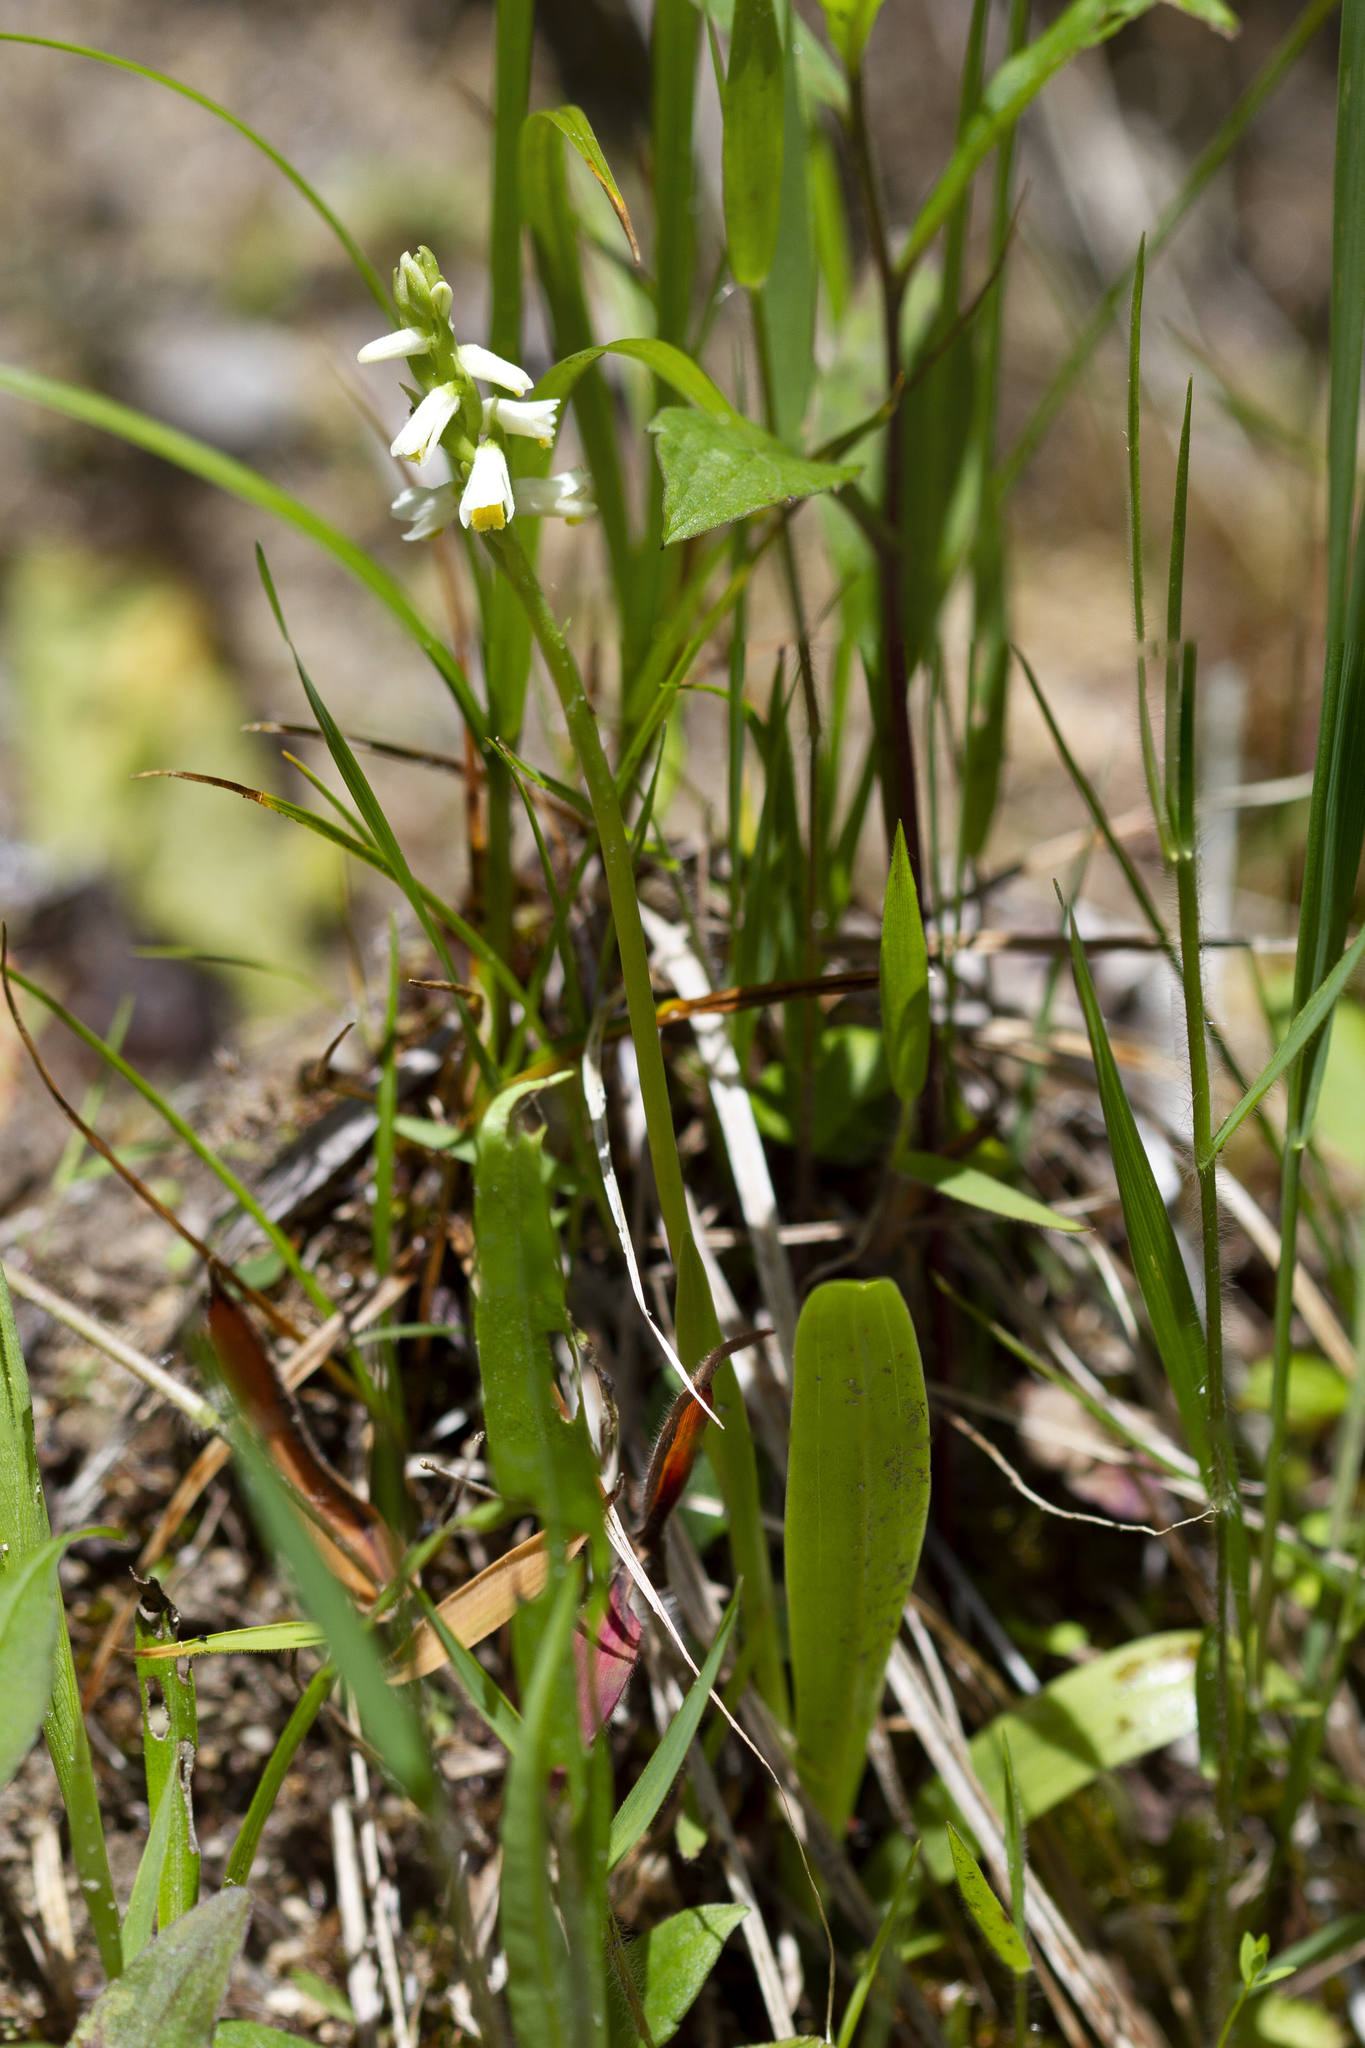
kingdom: Plantae
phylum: Tracheophyta
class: Liliopsida
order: Asparagales
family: Orchidaceae
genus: Spiranthes
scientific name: Spiranthes lucida
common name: Broad-leaved ladies'-tresses
